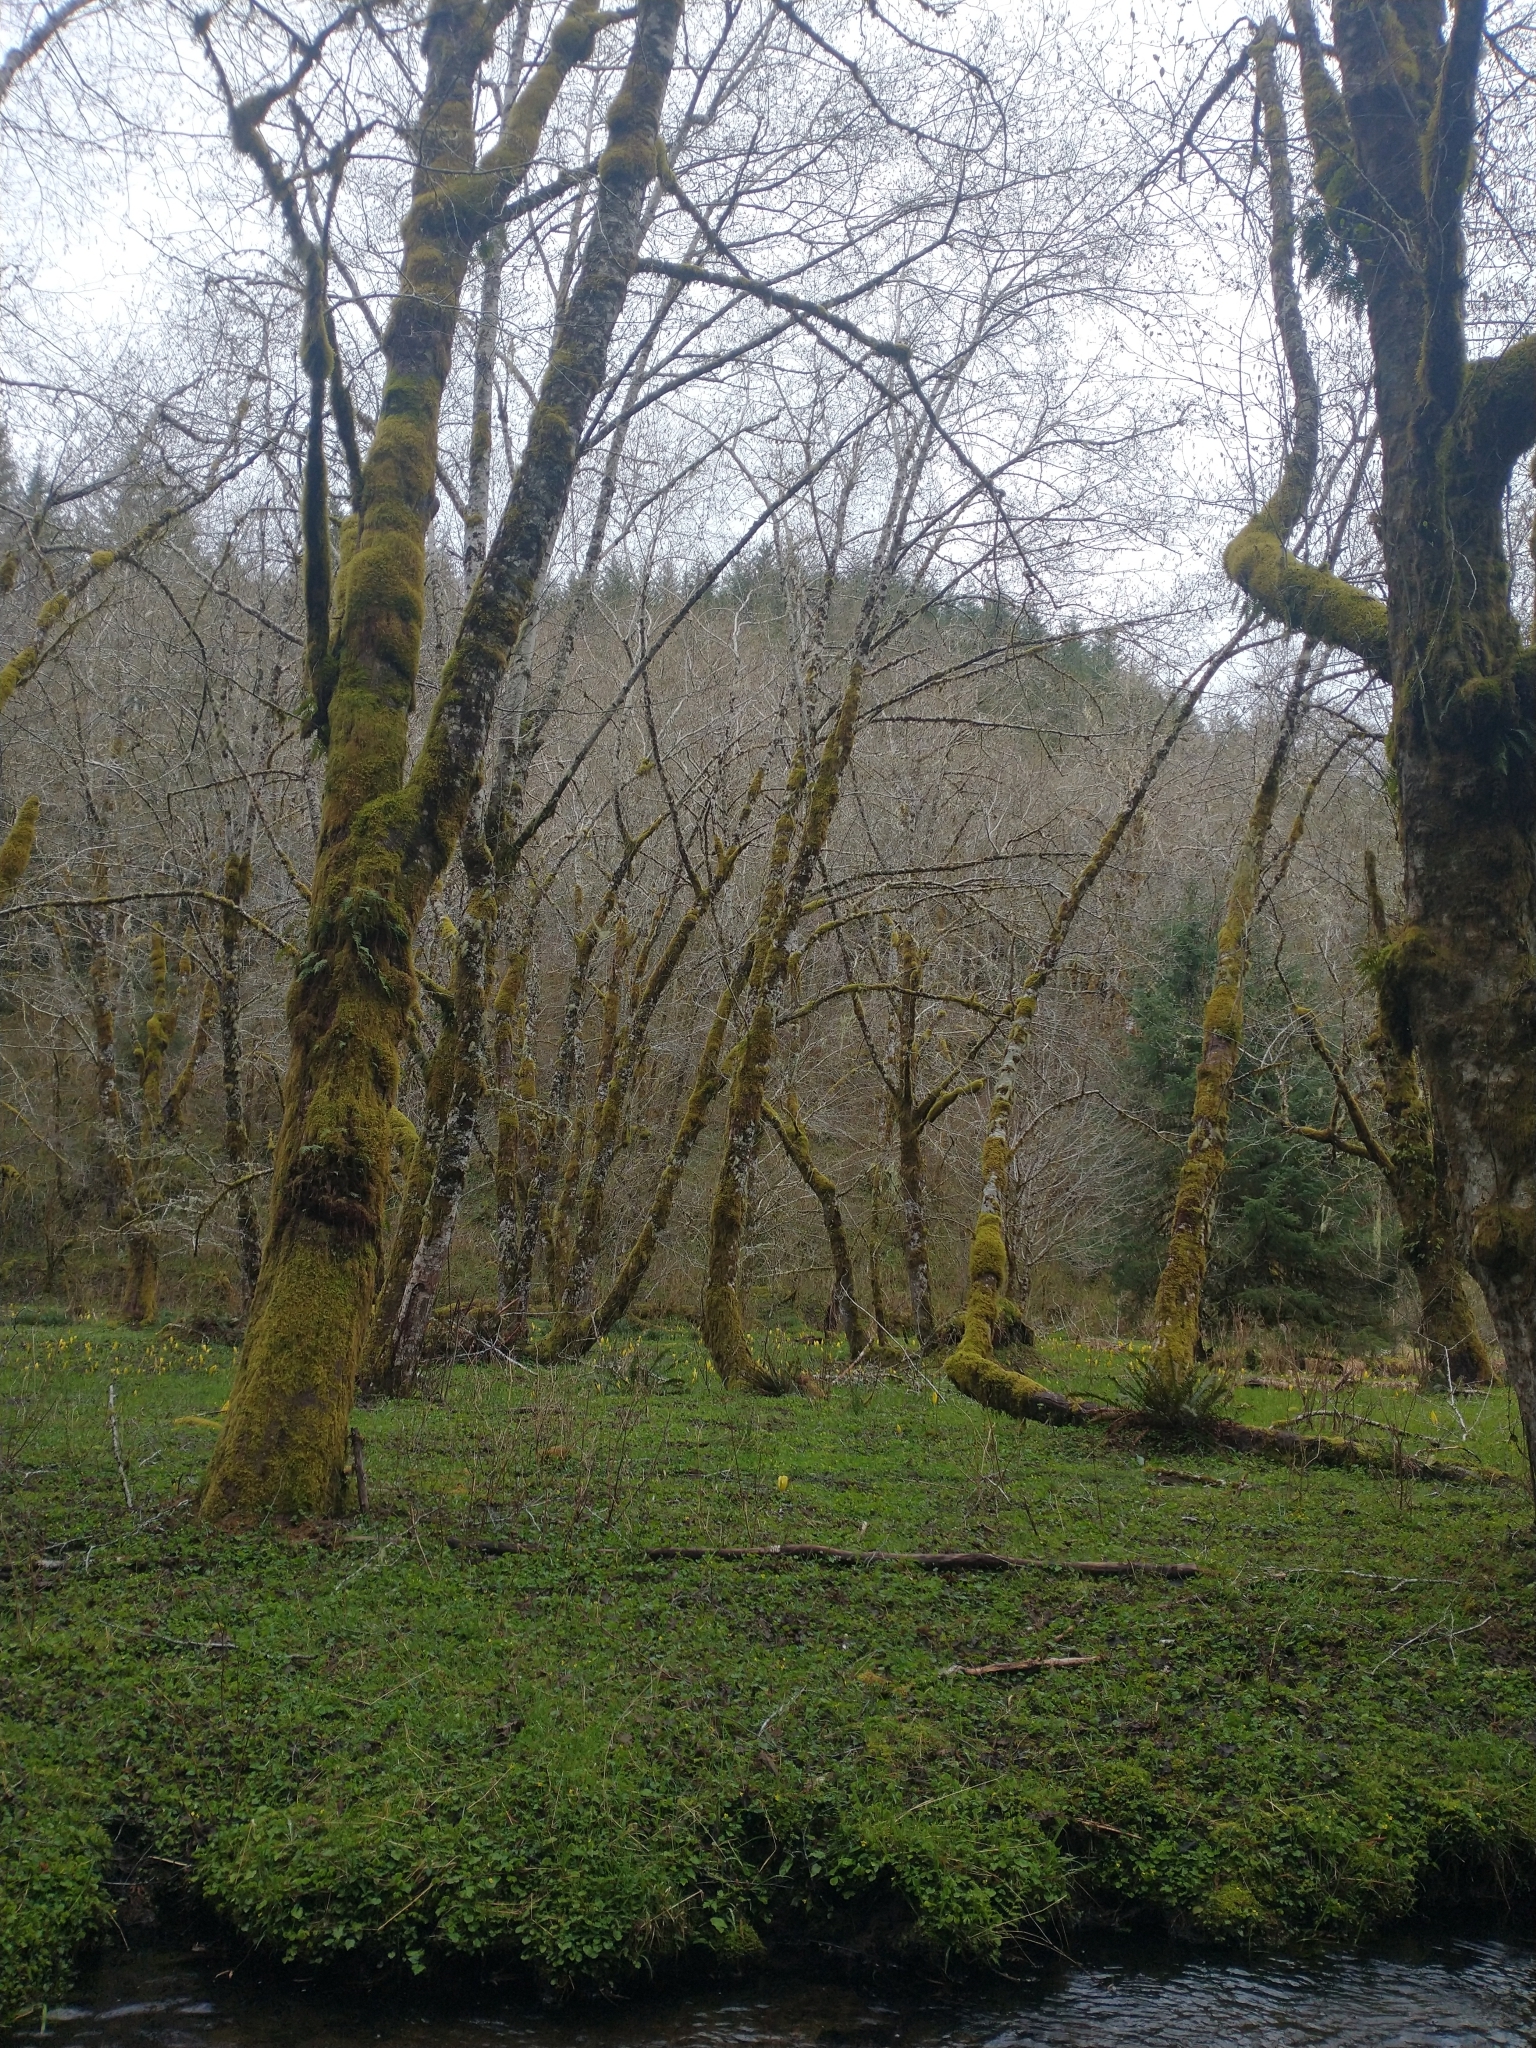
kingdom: Plantae
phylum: Tracheophyta
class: Liliopsida
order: Alismatales
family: Araceae
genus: Lysichiton
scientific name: Lysichiton americanus
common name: American skunk cabbage
